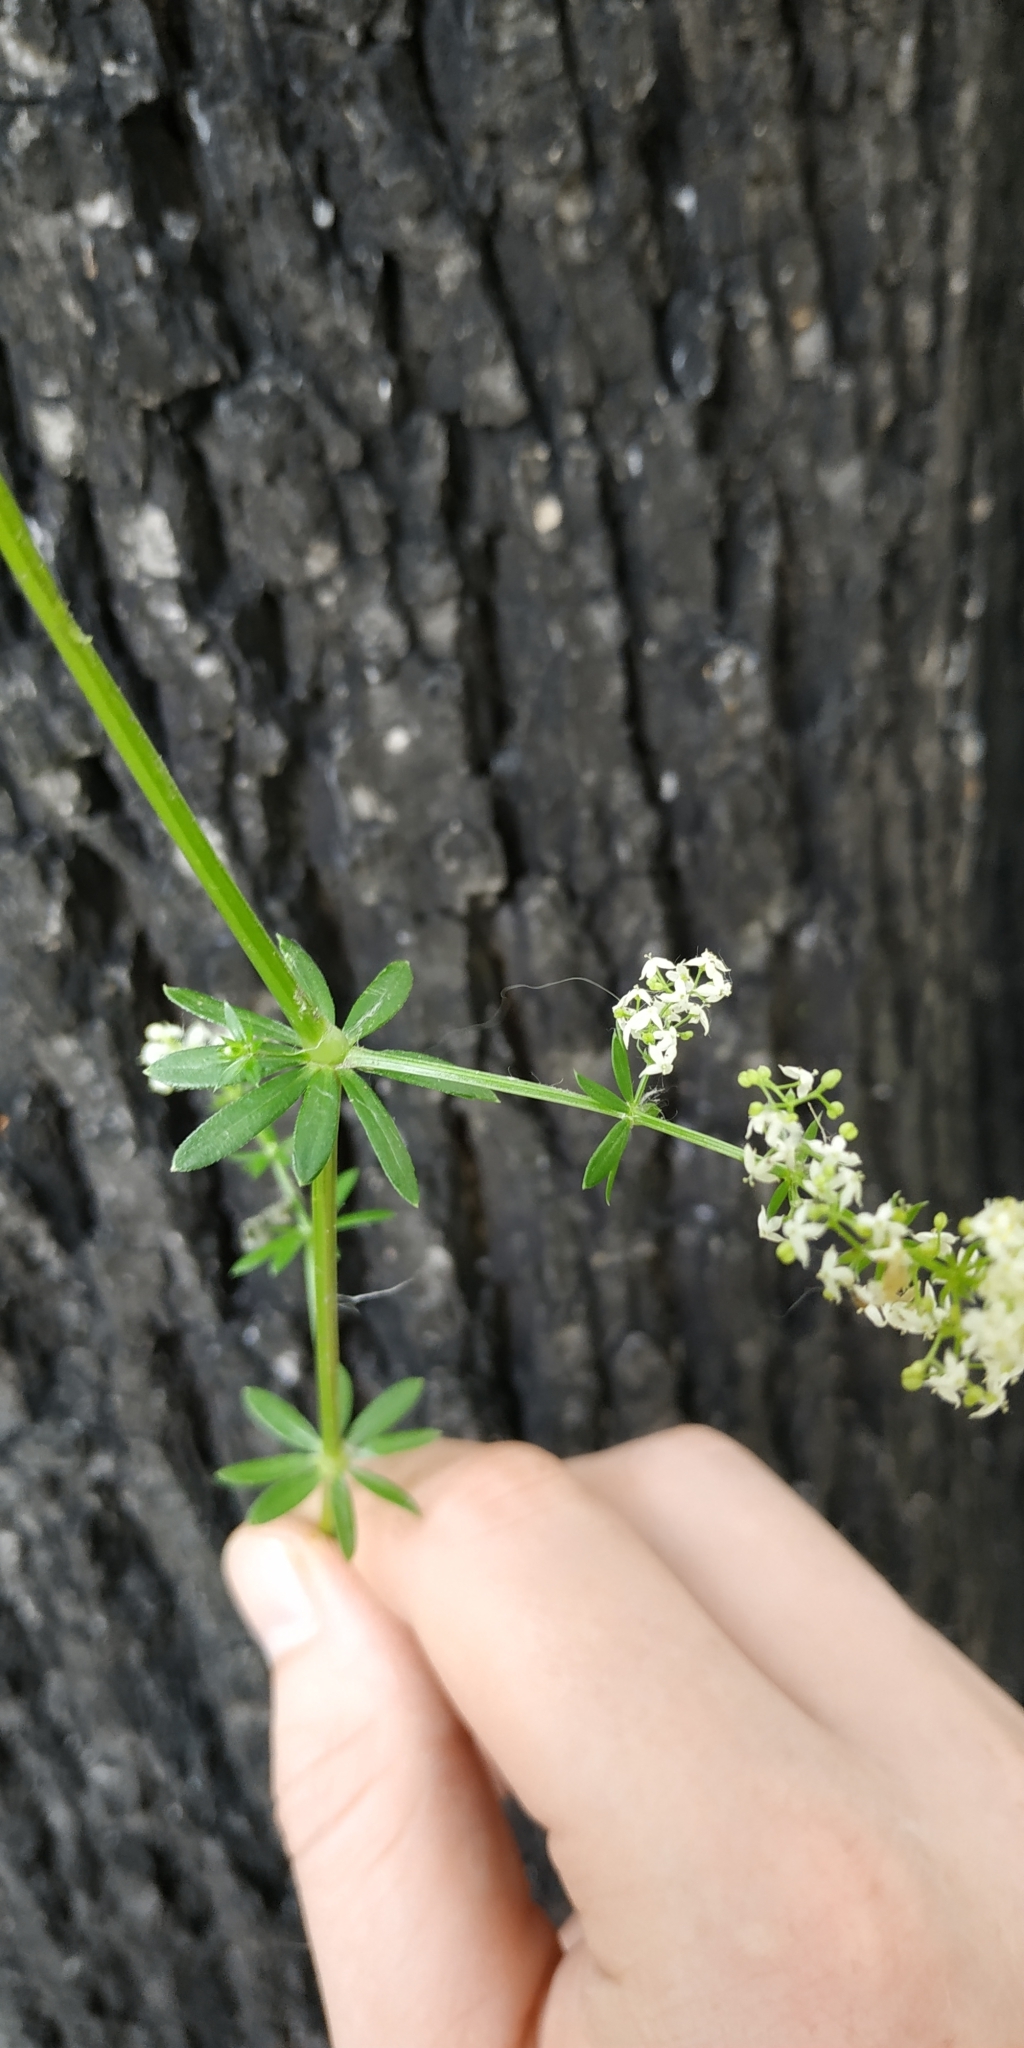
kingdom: Plantae
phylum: Tracheophyta
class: Magnoliopsida
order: Gentianales
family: Rubiaceae
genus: Galium
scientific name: Galium mollugo
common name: Hedge bedstraw
